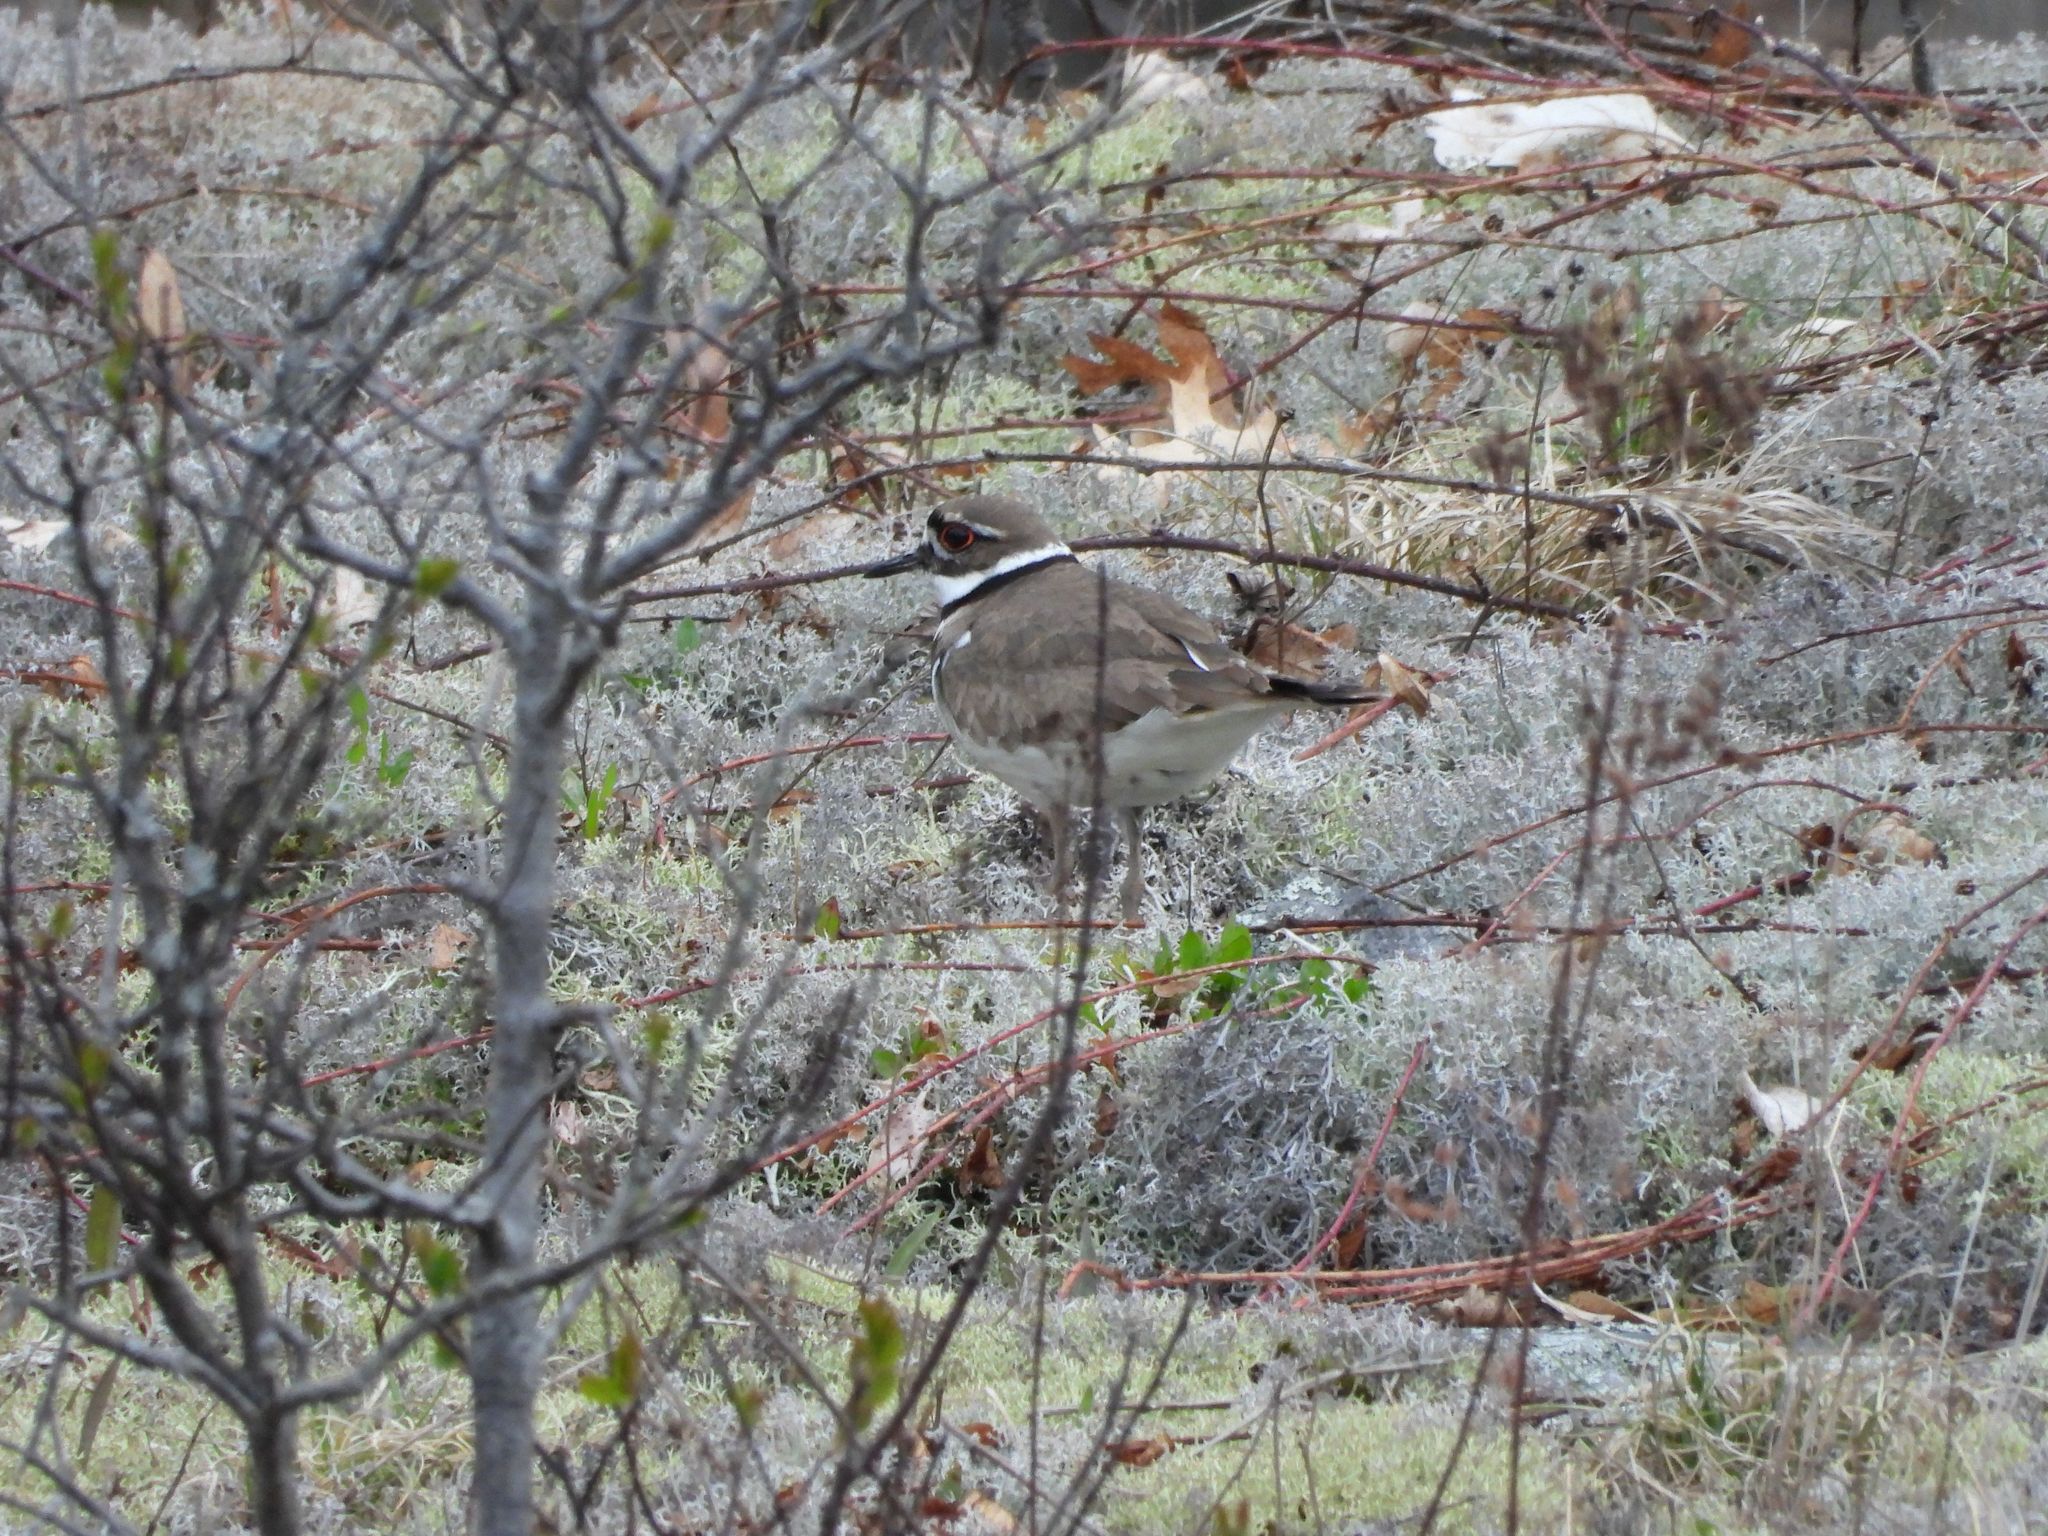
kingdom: Animalia
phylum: Chordata
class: Aves
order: Charadriiformes
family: Charadriidae
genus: Charadrius
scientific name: Charadrius vociferus
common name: Killdeer
